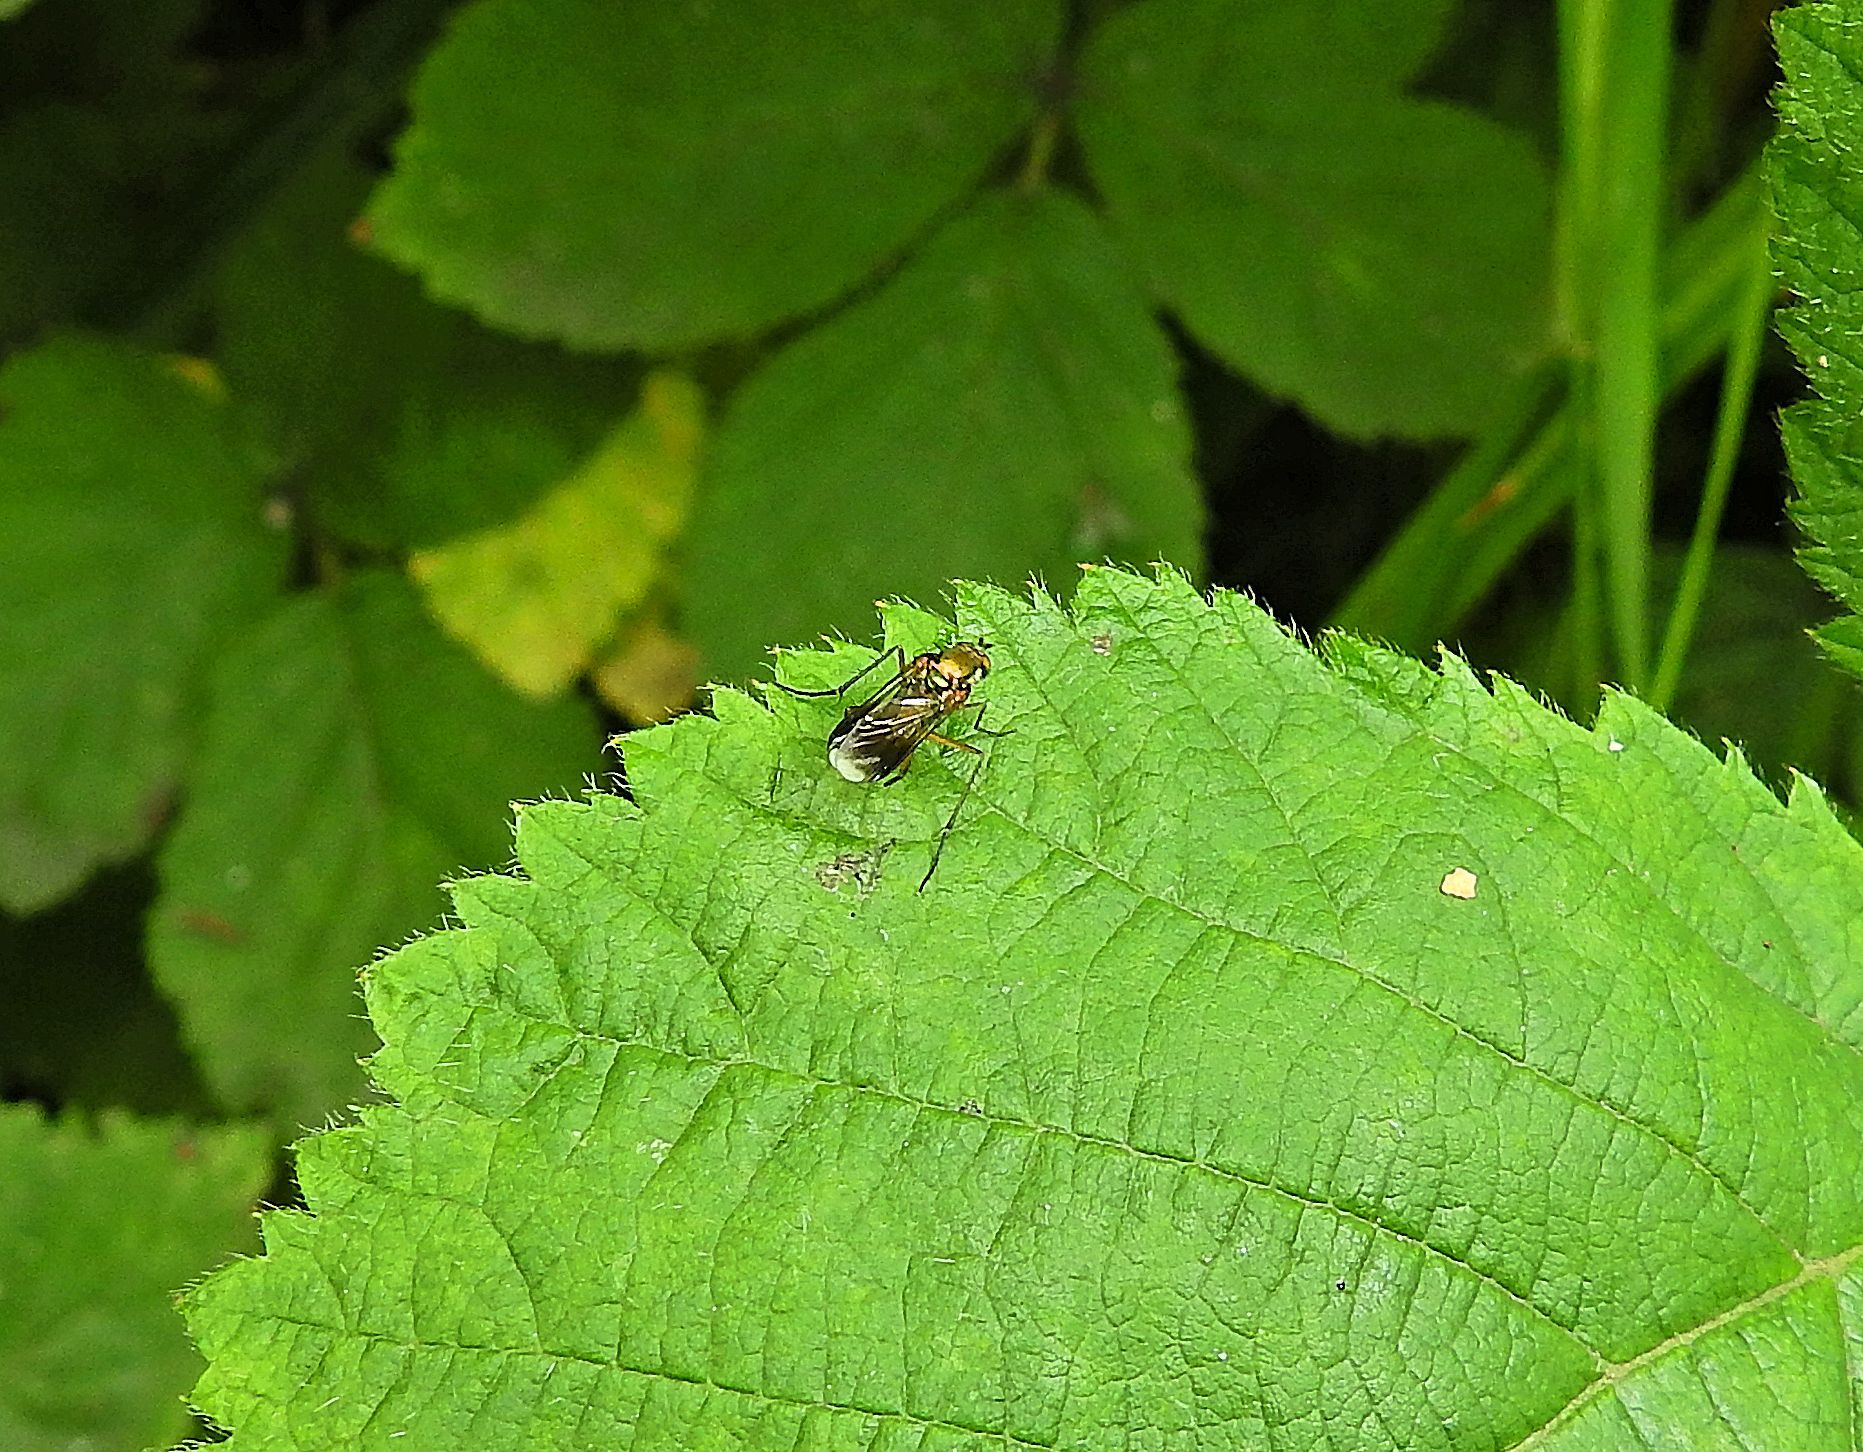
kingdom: Animalia
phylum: Arthropoda
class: Insecta
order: Diptera
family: Dolichopodidae
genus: Poecilobothrus
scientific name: Poecilobothrus nobilitatus
